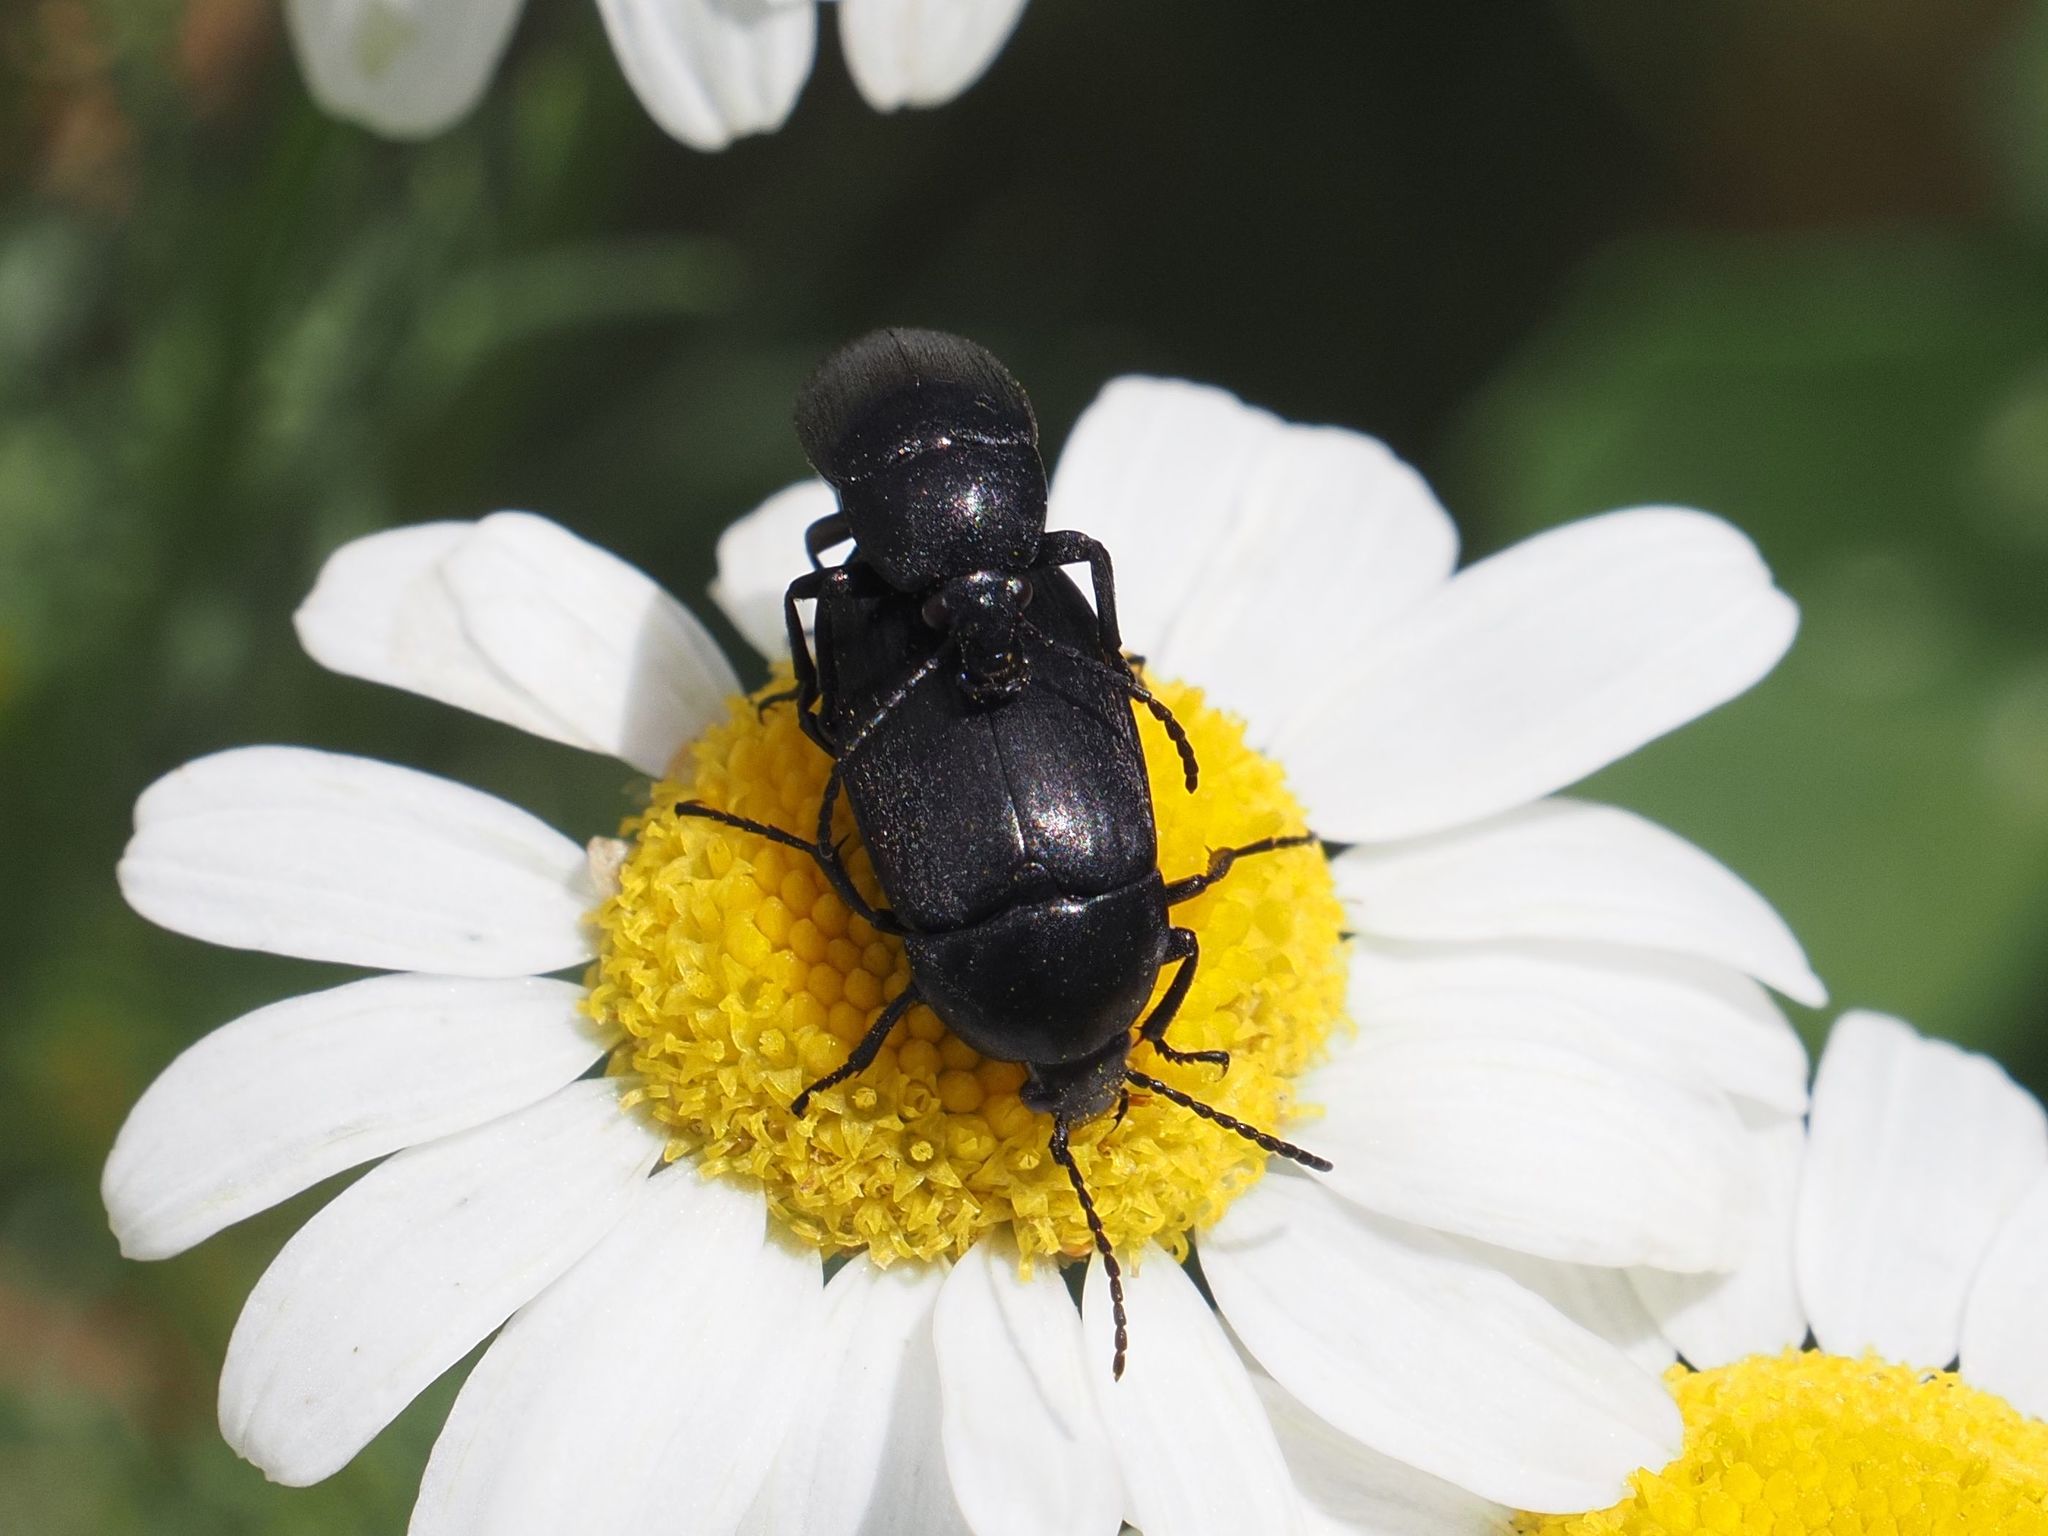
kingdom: Animalia
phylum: Arthropoda
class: Insecta
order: Coleoptera
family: Tenebrionidae
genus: Podonta
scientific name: Podonta nigrita
